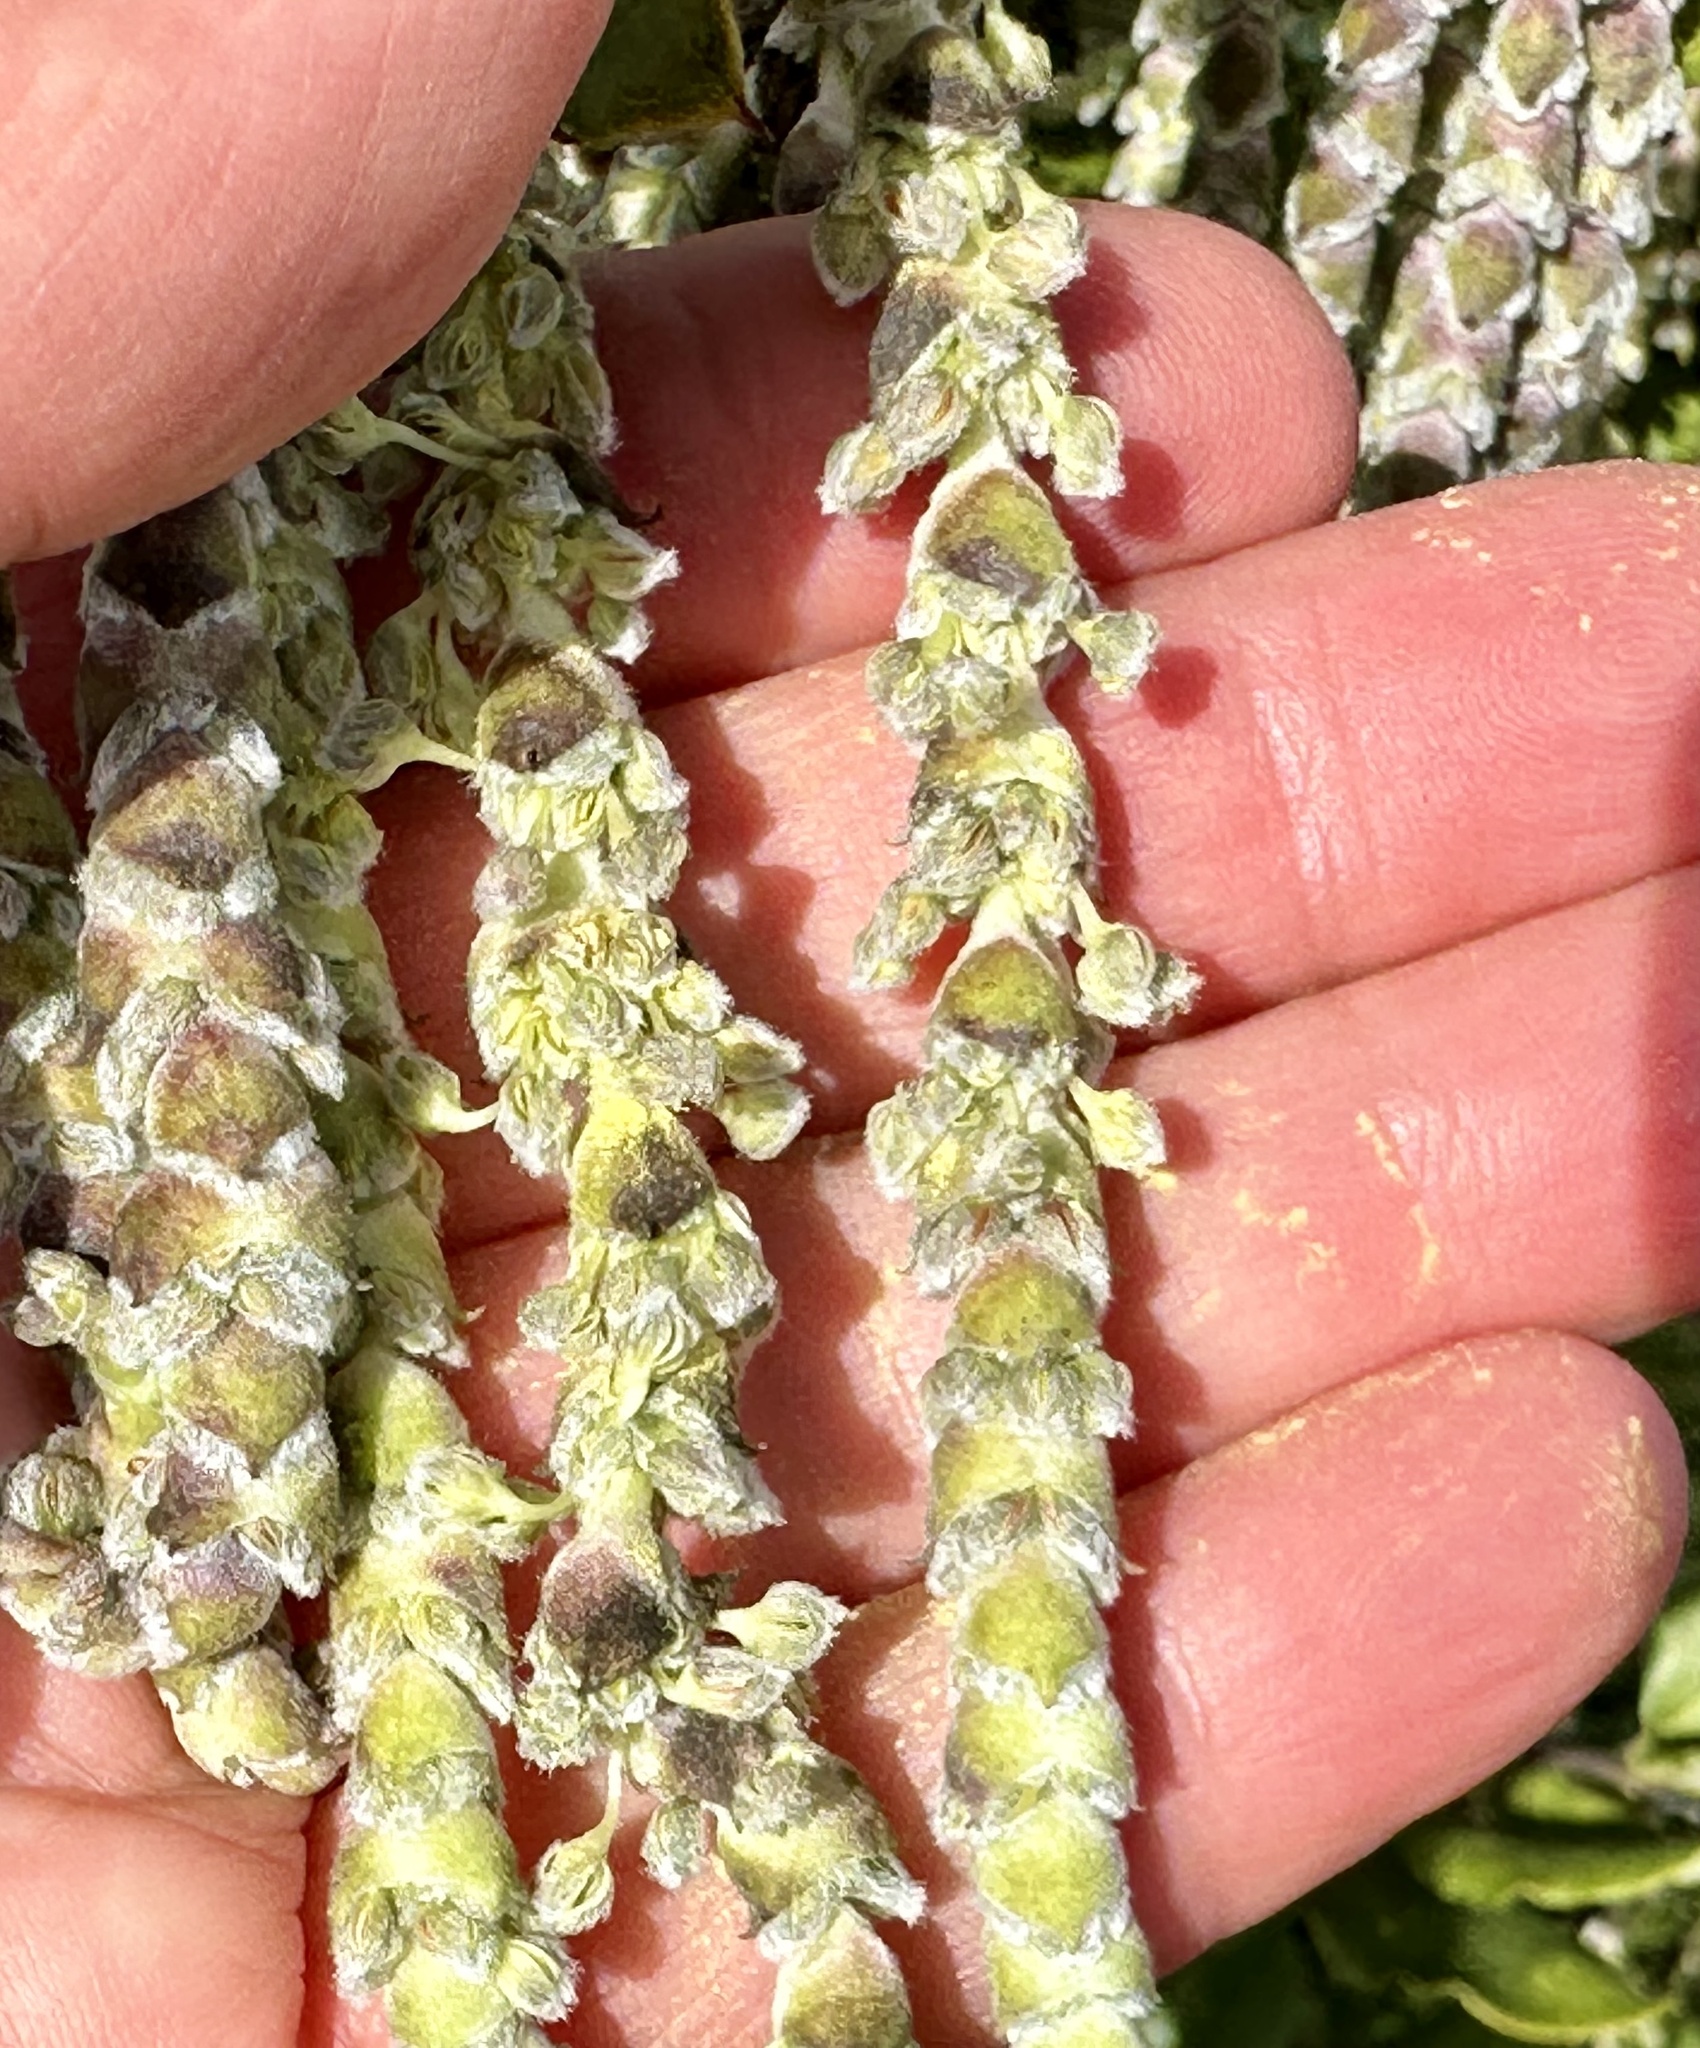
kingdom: Plantae
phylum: Tracheophyta
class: Magnoliopsida
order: Garryales
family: Garryaceae
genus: Garrya
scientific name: Garrya elliptica
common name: Silk-tassel
